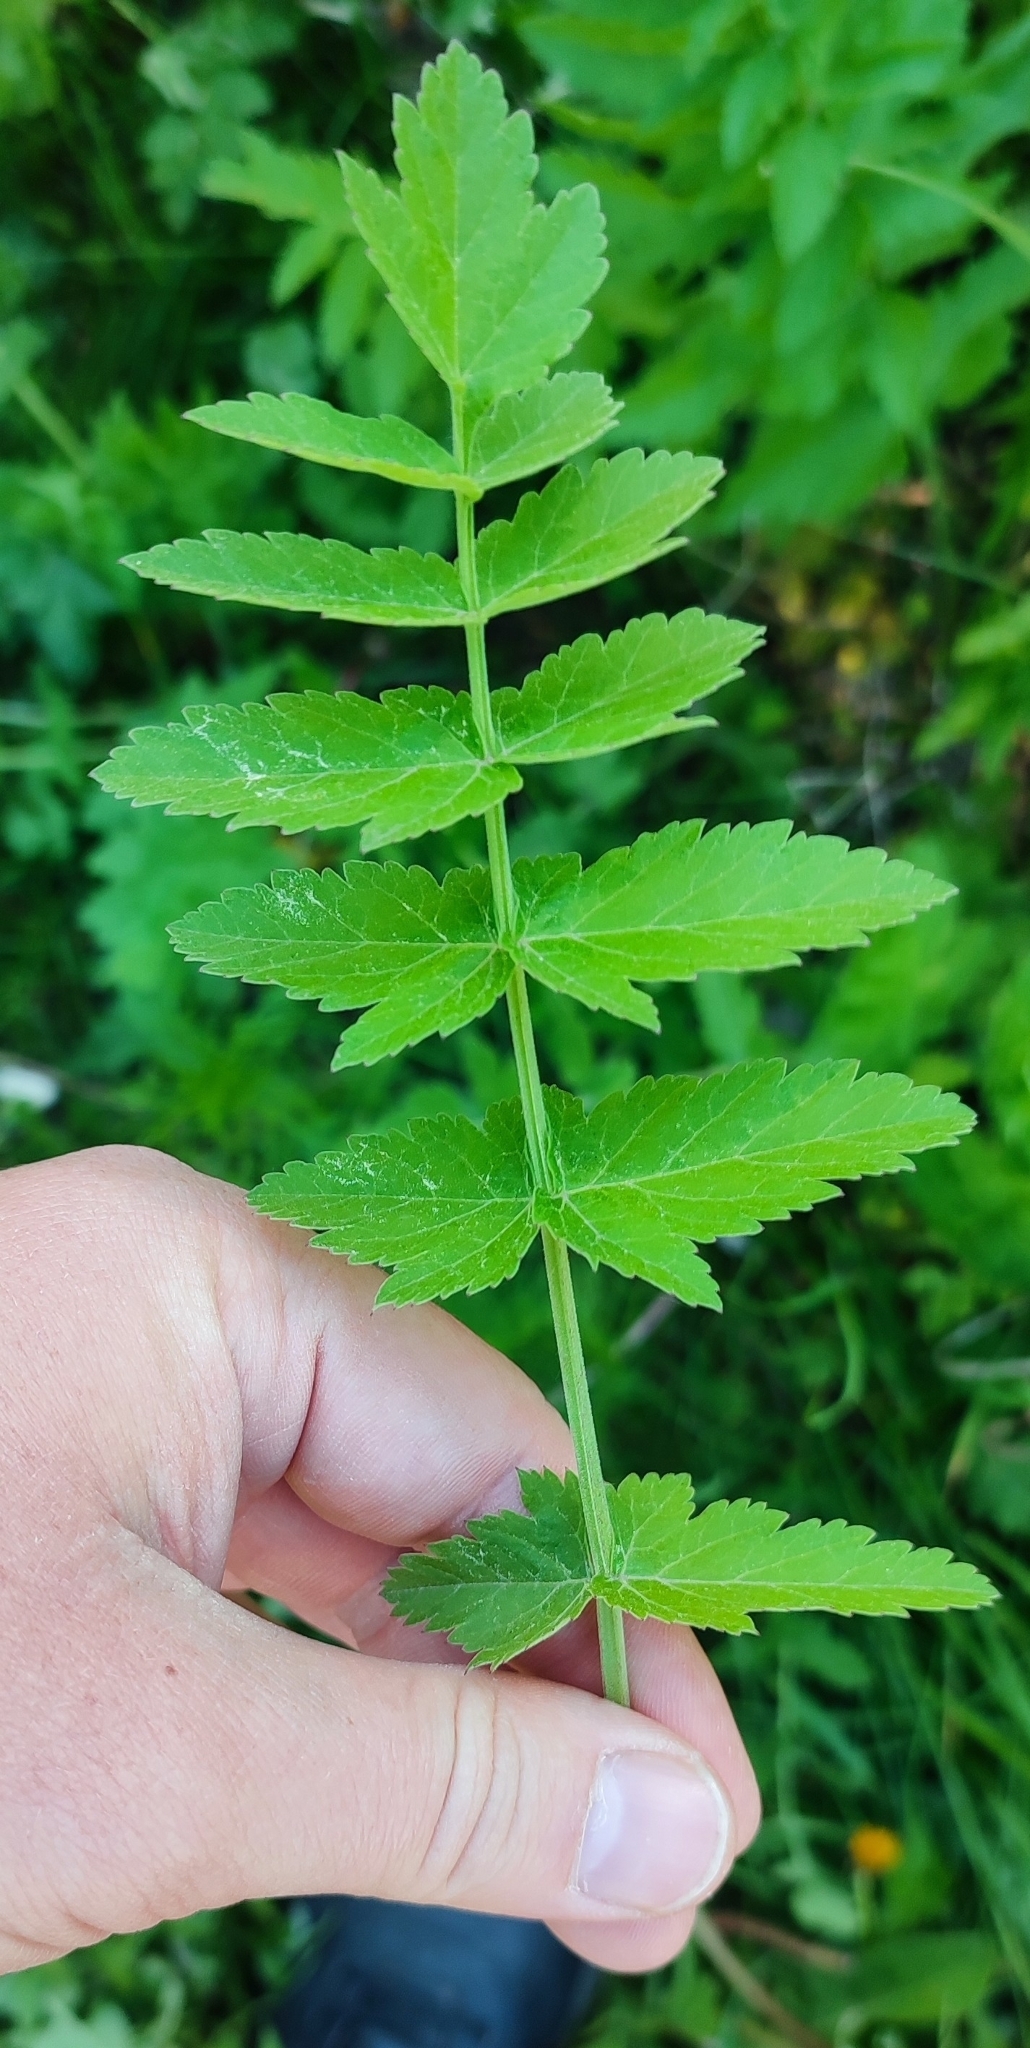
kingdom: Plantae
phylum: Tracheophyta
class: Magnoliopsida
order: Apiales
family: Apiaceae
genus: Pastinaca
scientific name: Pastinaca sativa
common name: Wild parsnip
